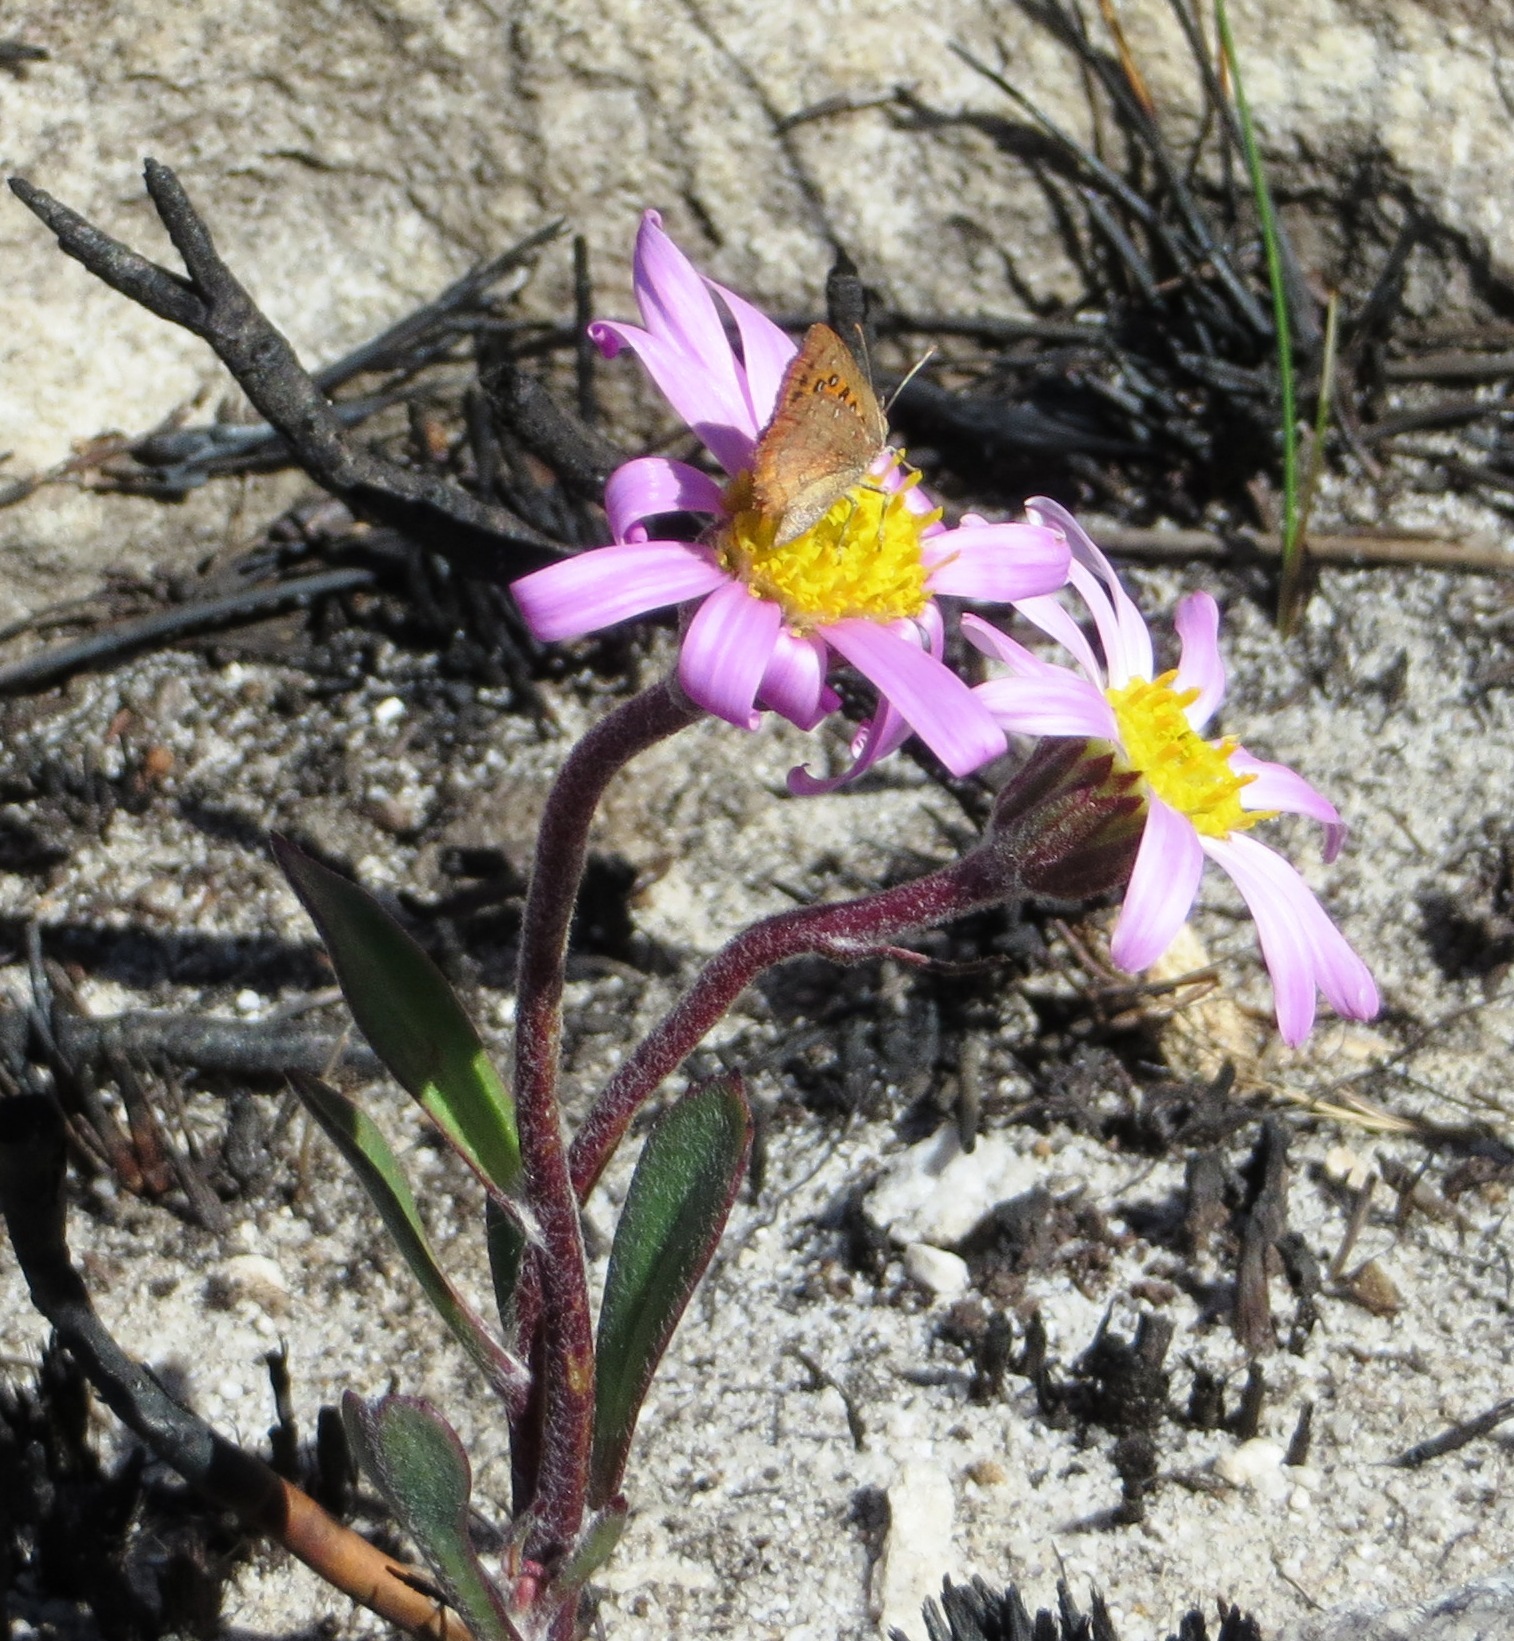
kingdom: Animalia
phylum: Arthropoda
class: Insecta
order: Lepidoptera
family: Lycaenidae
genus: Axiocerses
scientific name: Axiocerses thyra
